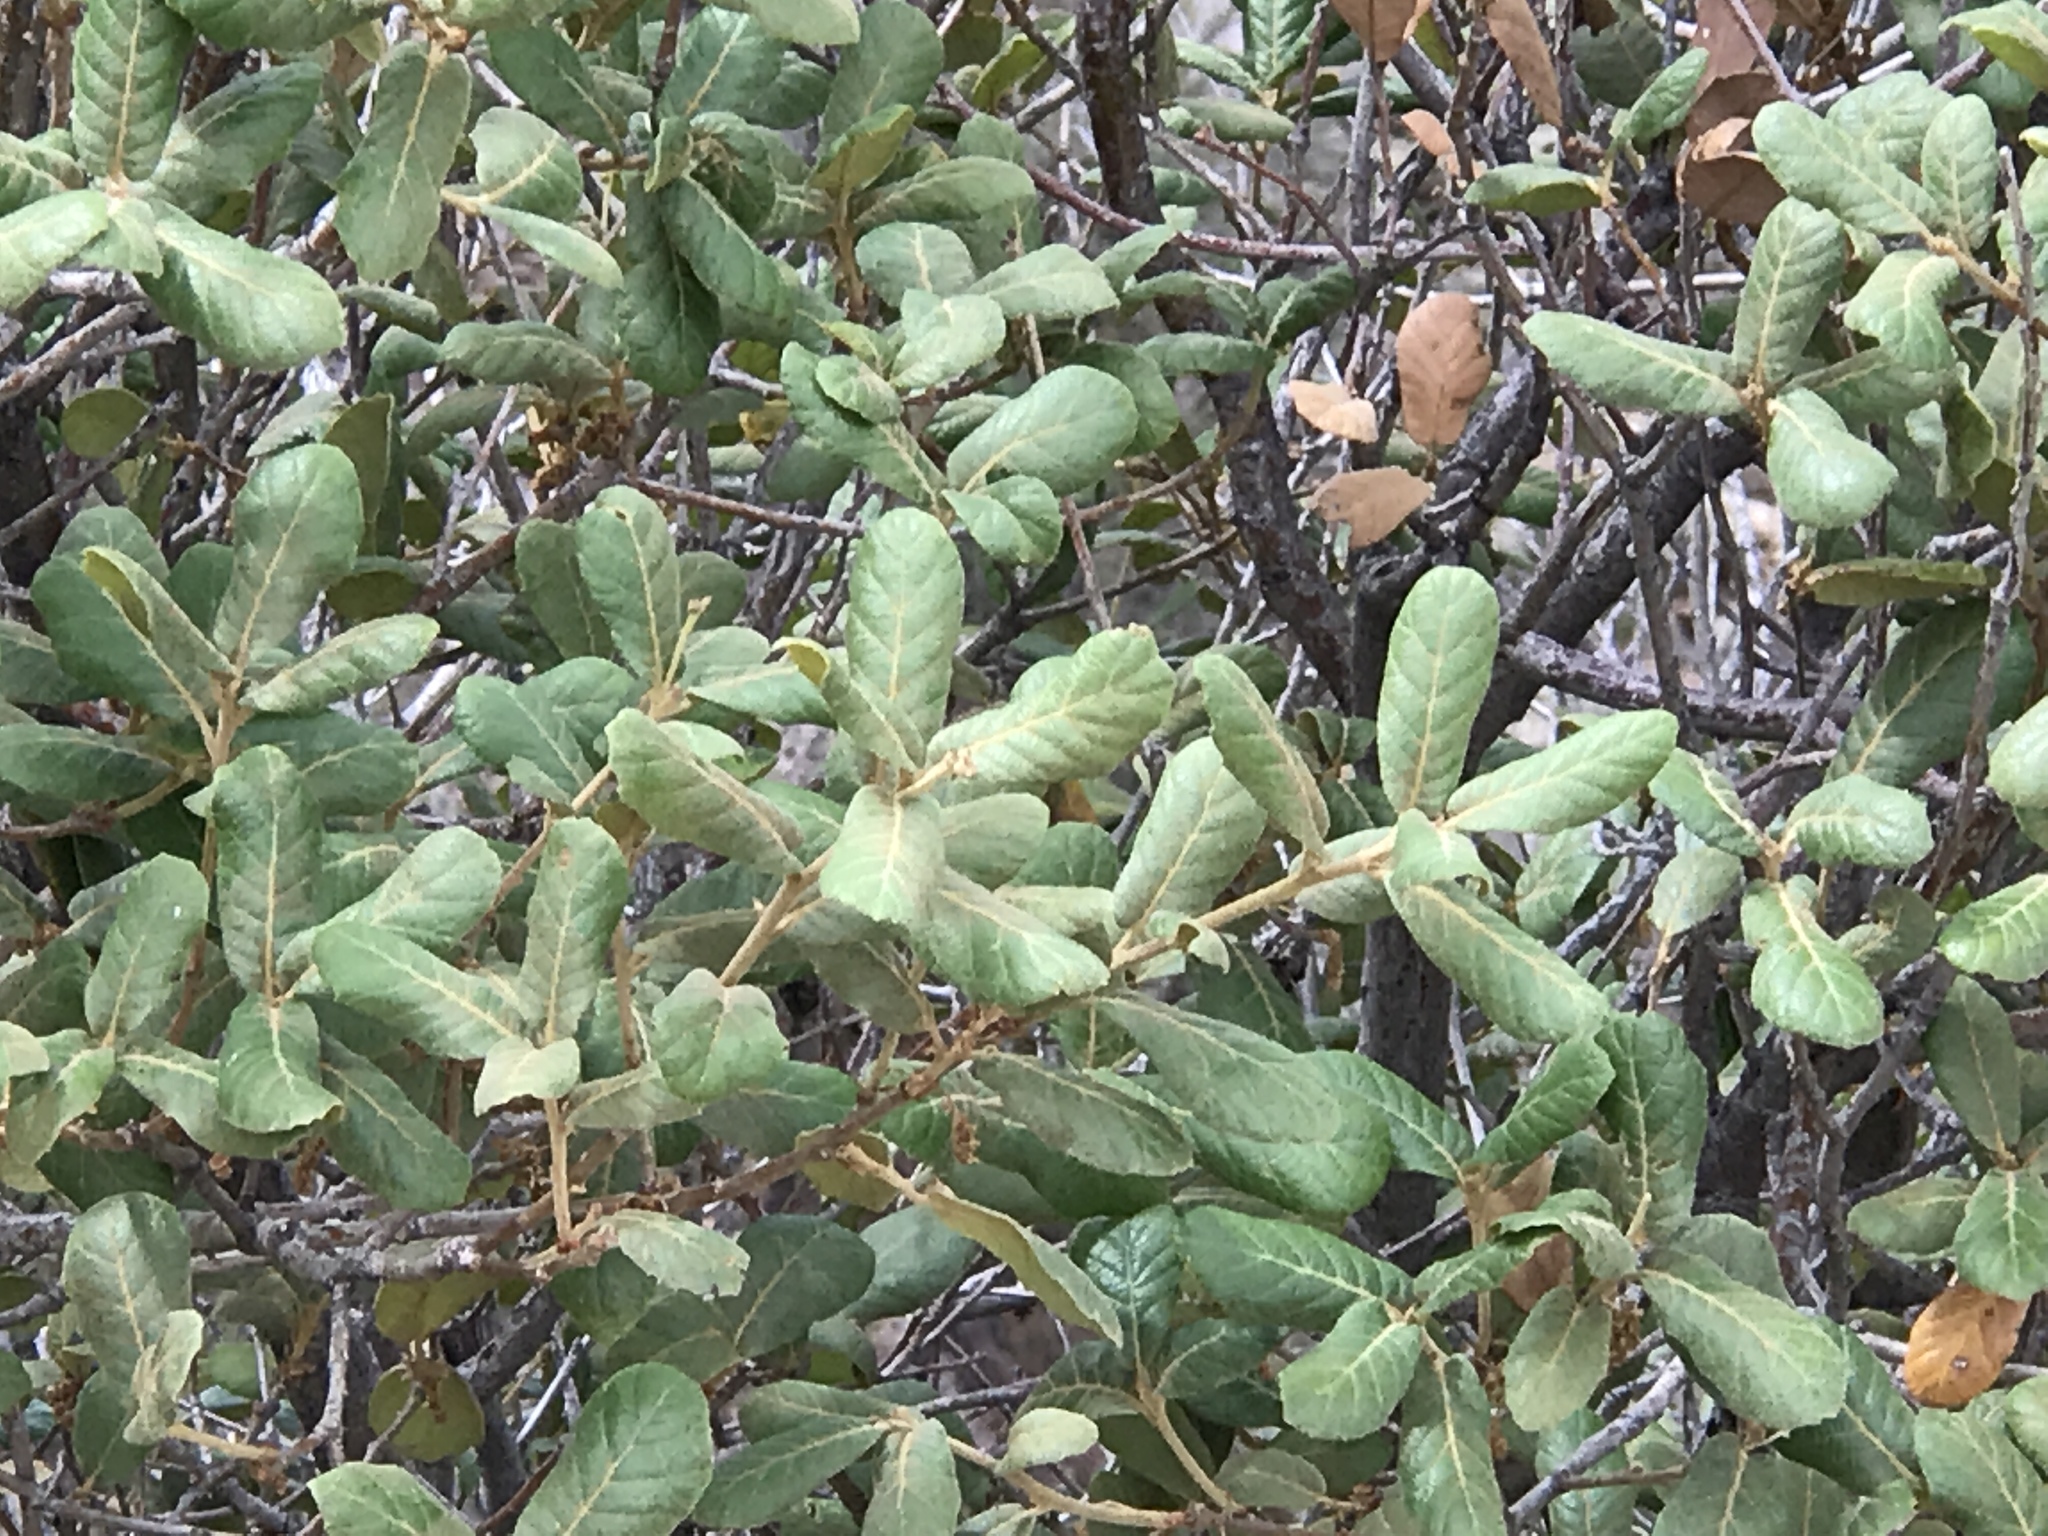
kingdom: Plantae
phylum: Tracheophyta
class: Magnoliopsida
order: Fagales
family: Fagaceae
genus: Quercus
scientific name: Quercus rugosa
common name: Netleaf oak
